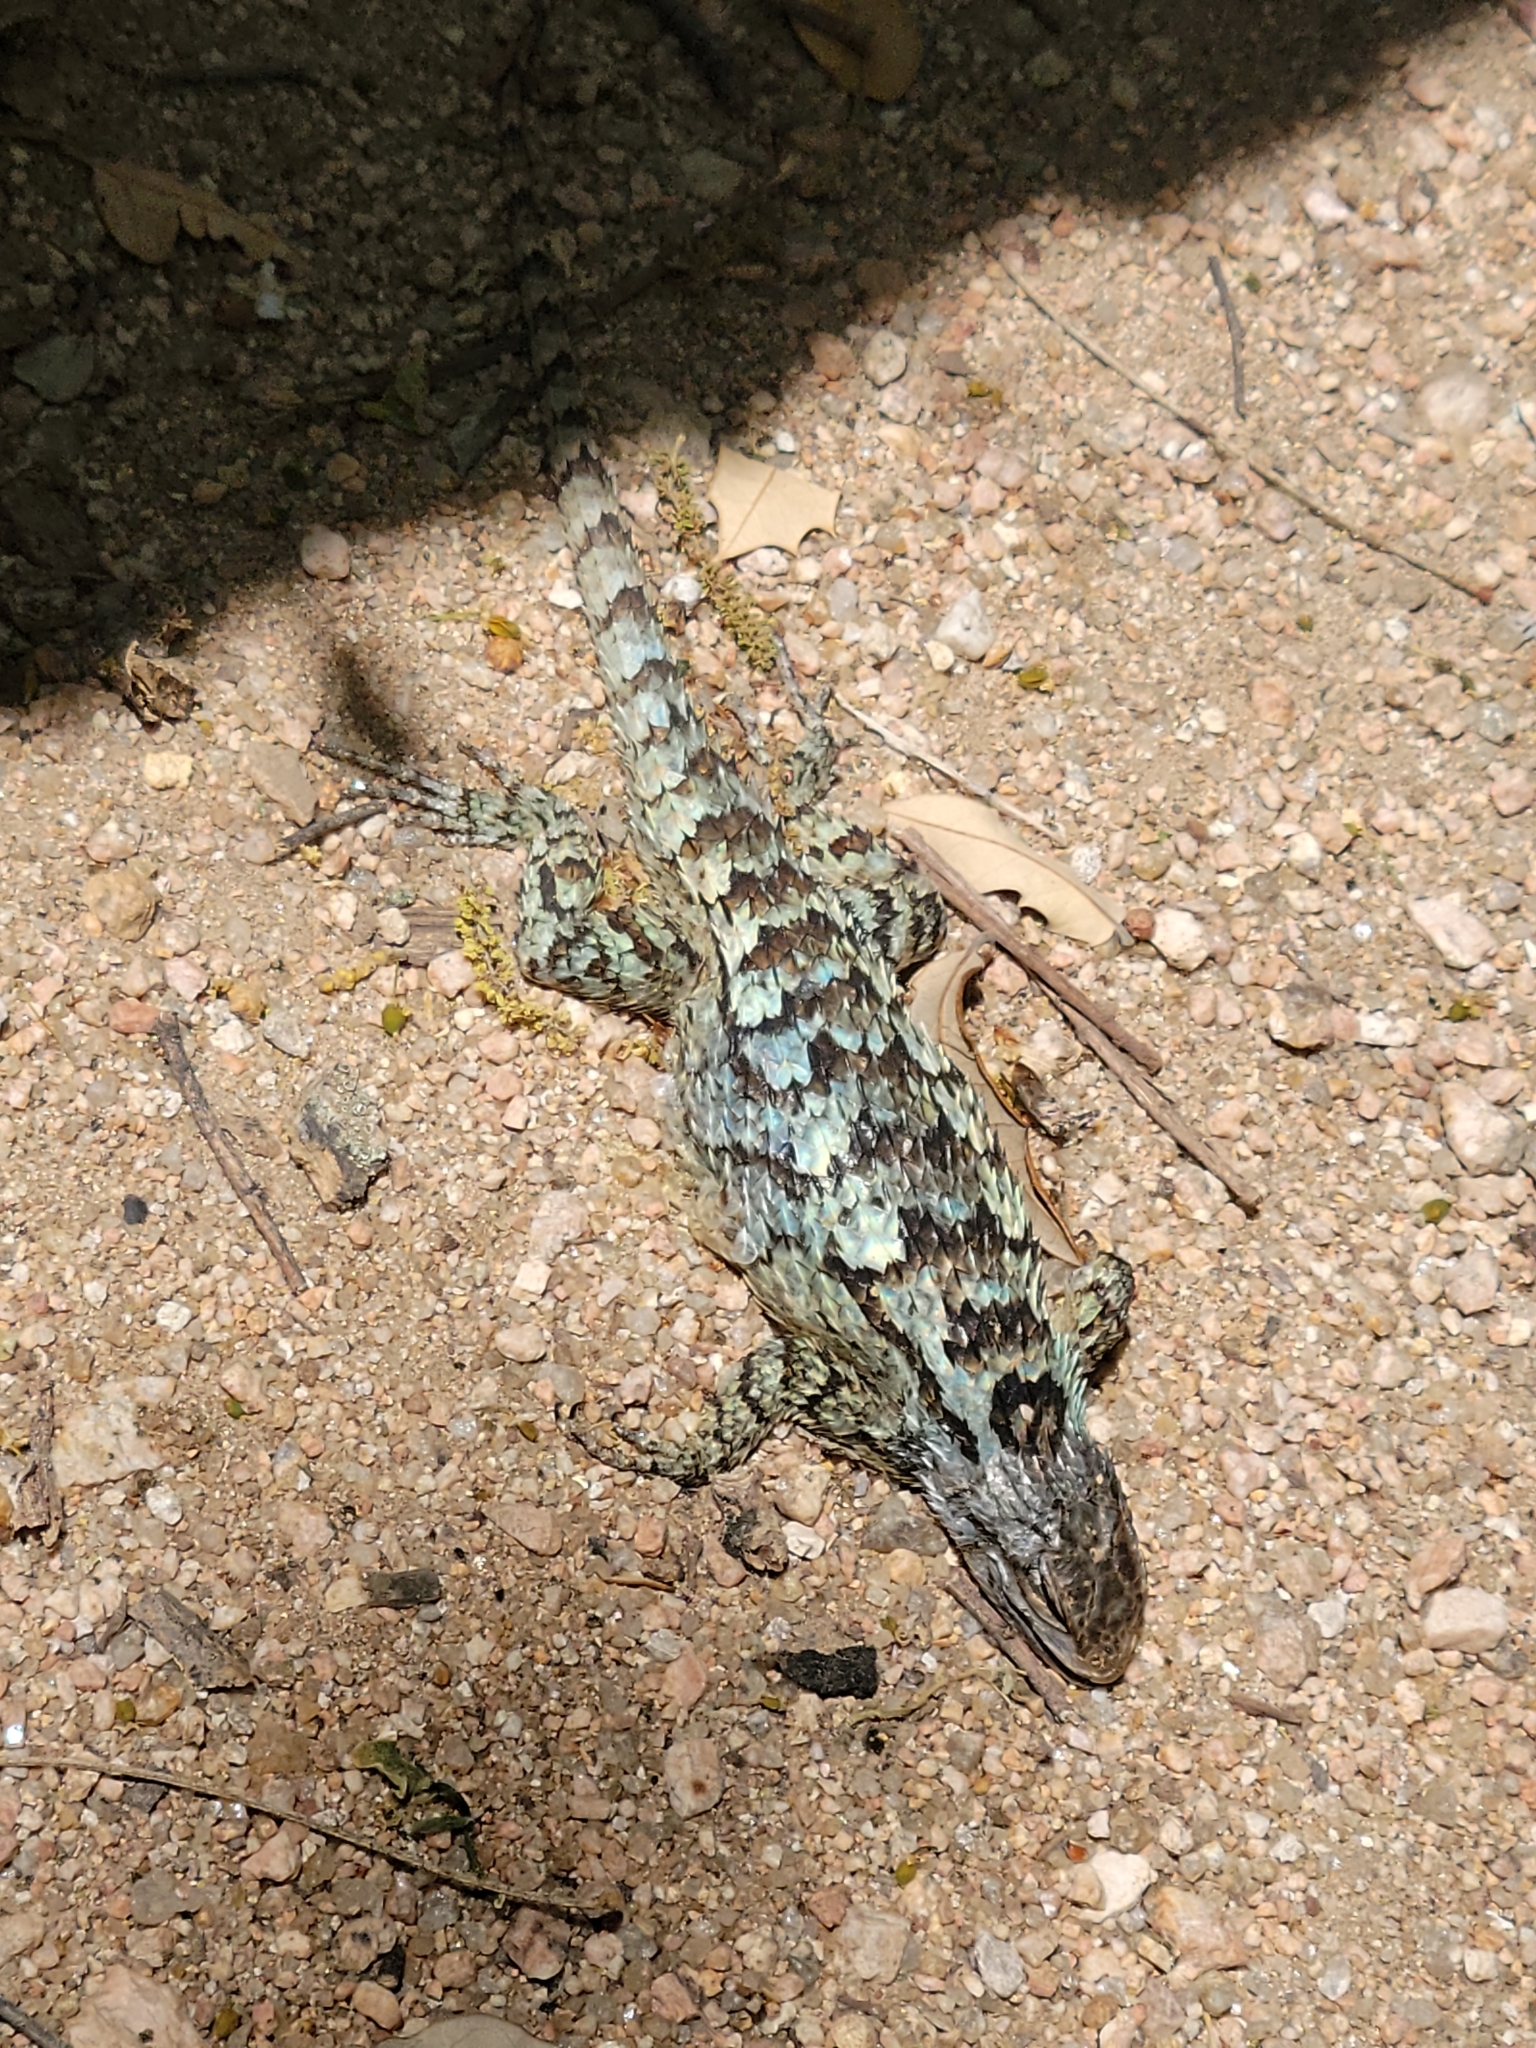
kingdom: Animalia
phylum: Chordata
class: Squamata
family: Phrynosomatidae
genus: Sceloporus
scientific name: Sceloporus olivaceus
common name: Texas spiny lizard
